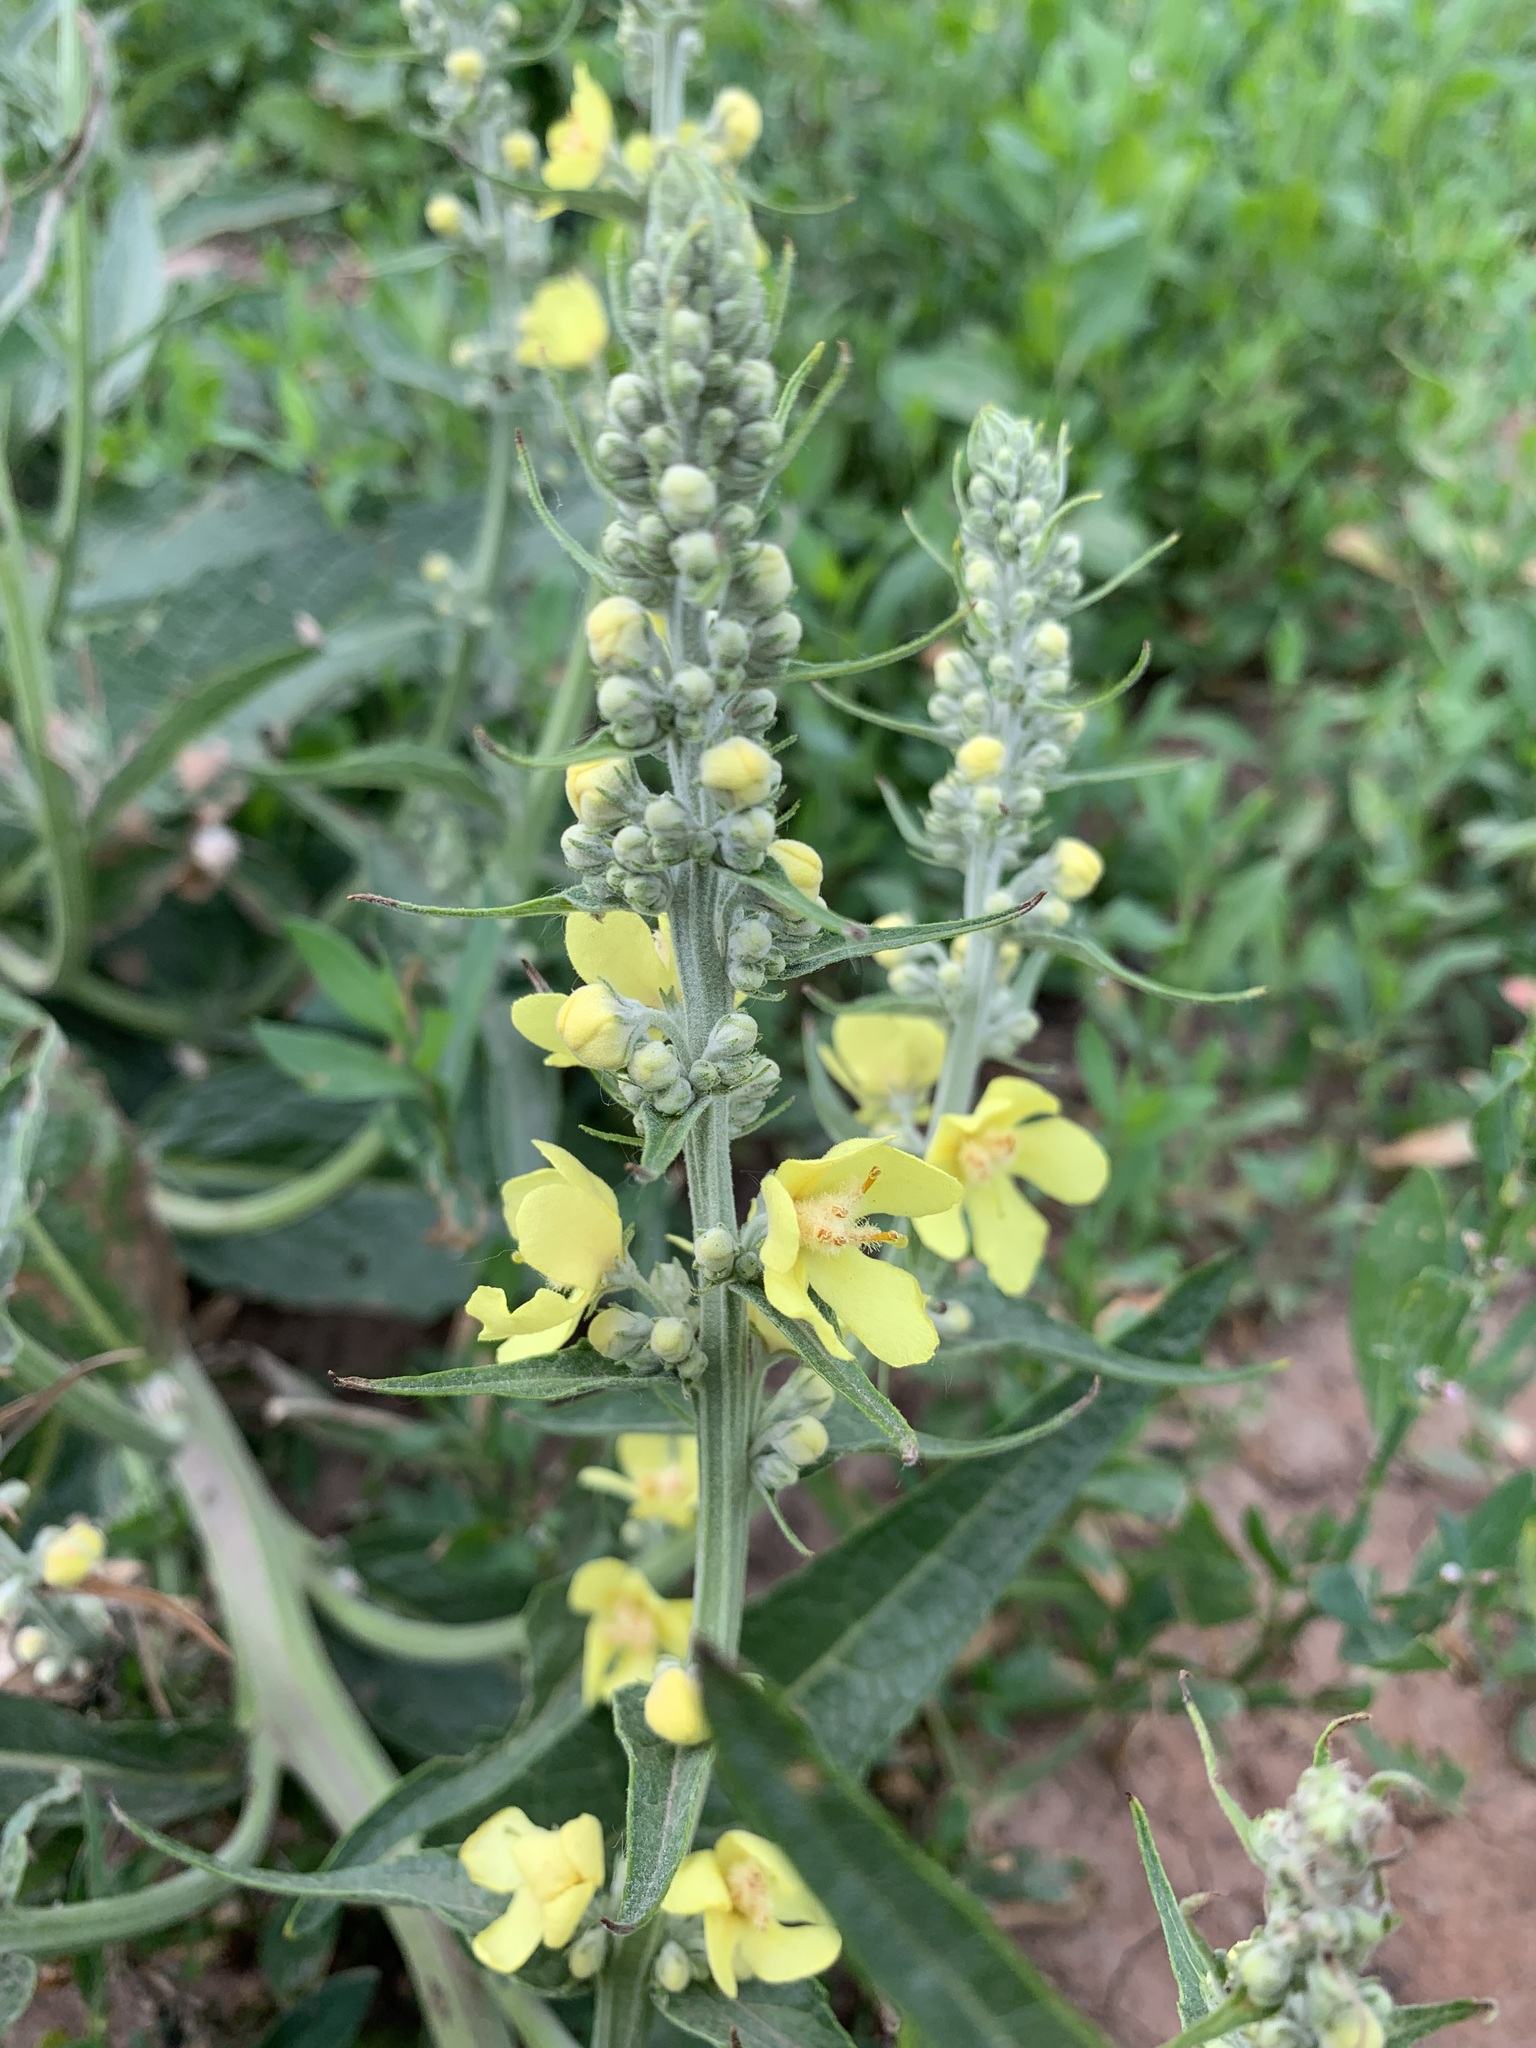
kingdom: Plantae
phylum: Tracheophyta
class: Magnoliopsida
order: Lamiales
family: Scrophulariaceae
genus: Verbascum
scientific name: Verbascum lychnitis
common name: White mullein
